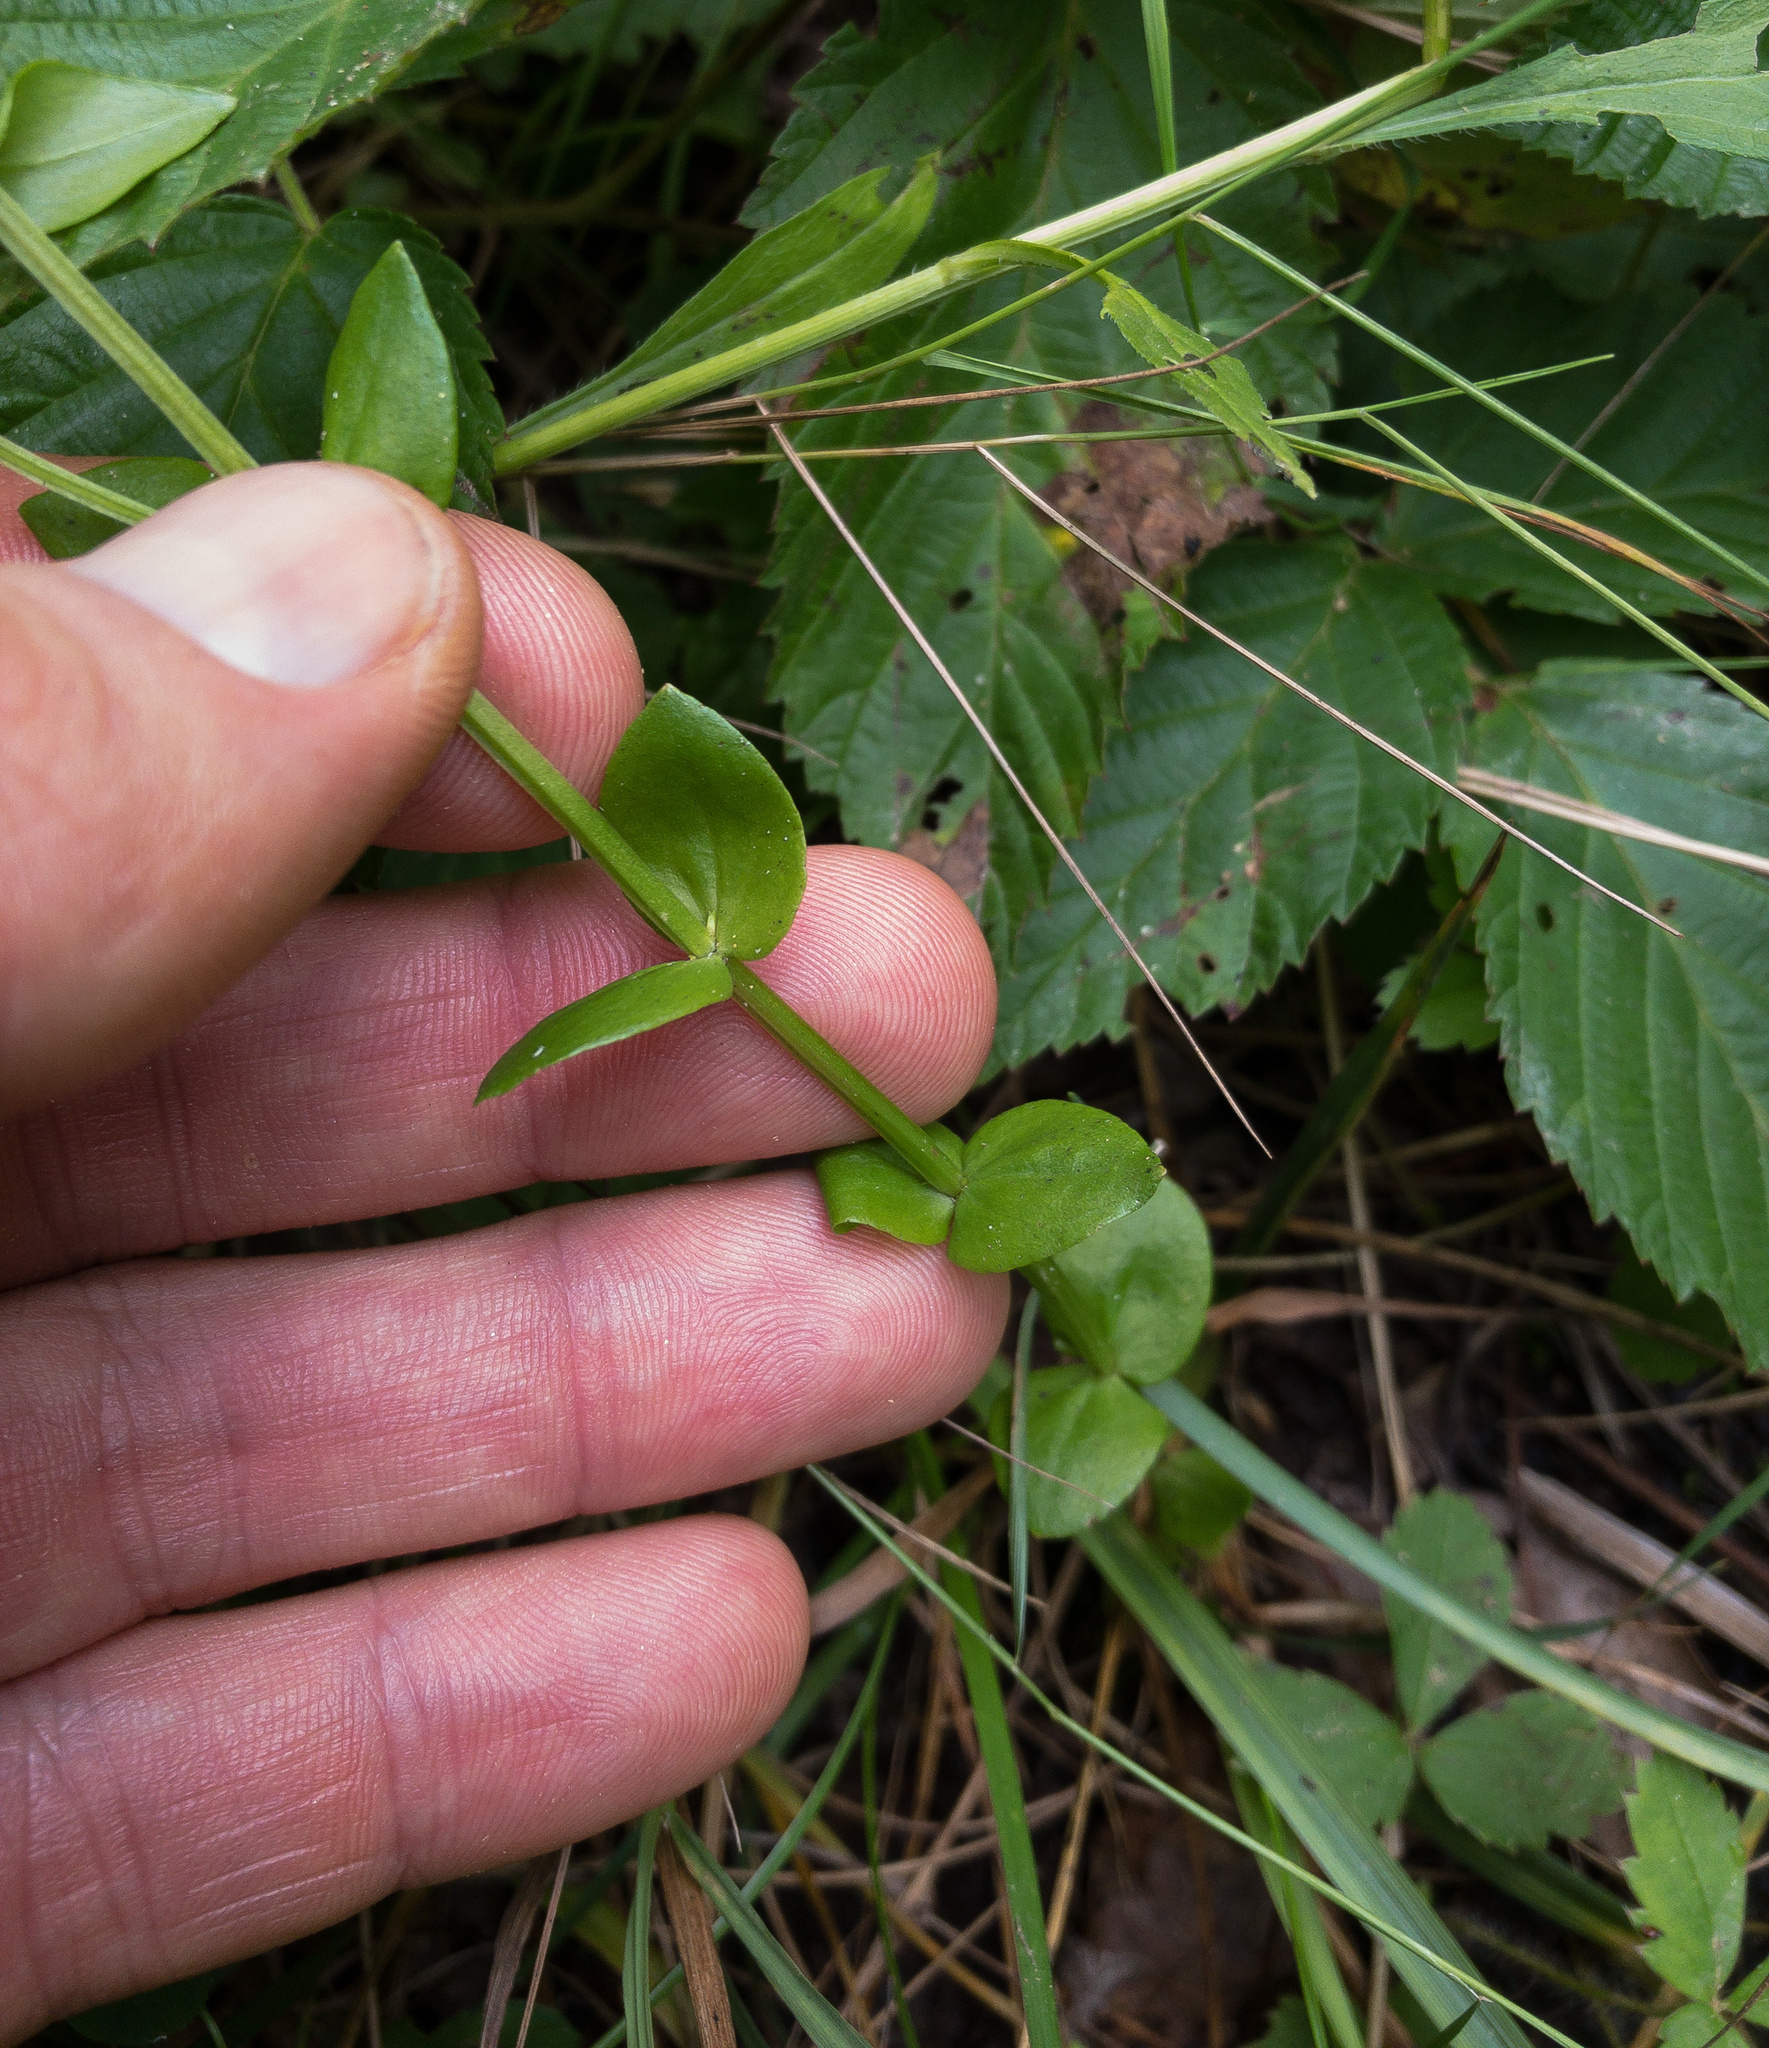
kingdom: Plantae
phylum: Tracheophyta
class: Magnoliopsida
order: Gentianales
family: Gentianaceae
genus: Sabatia
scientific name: Sabatia angularis
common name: Rose-pink
